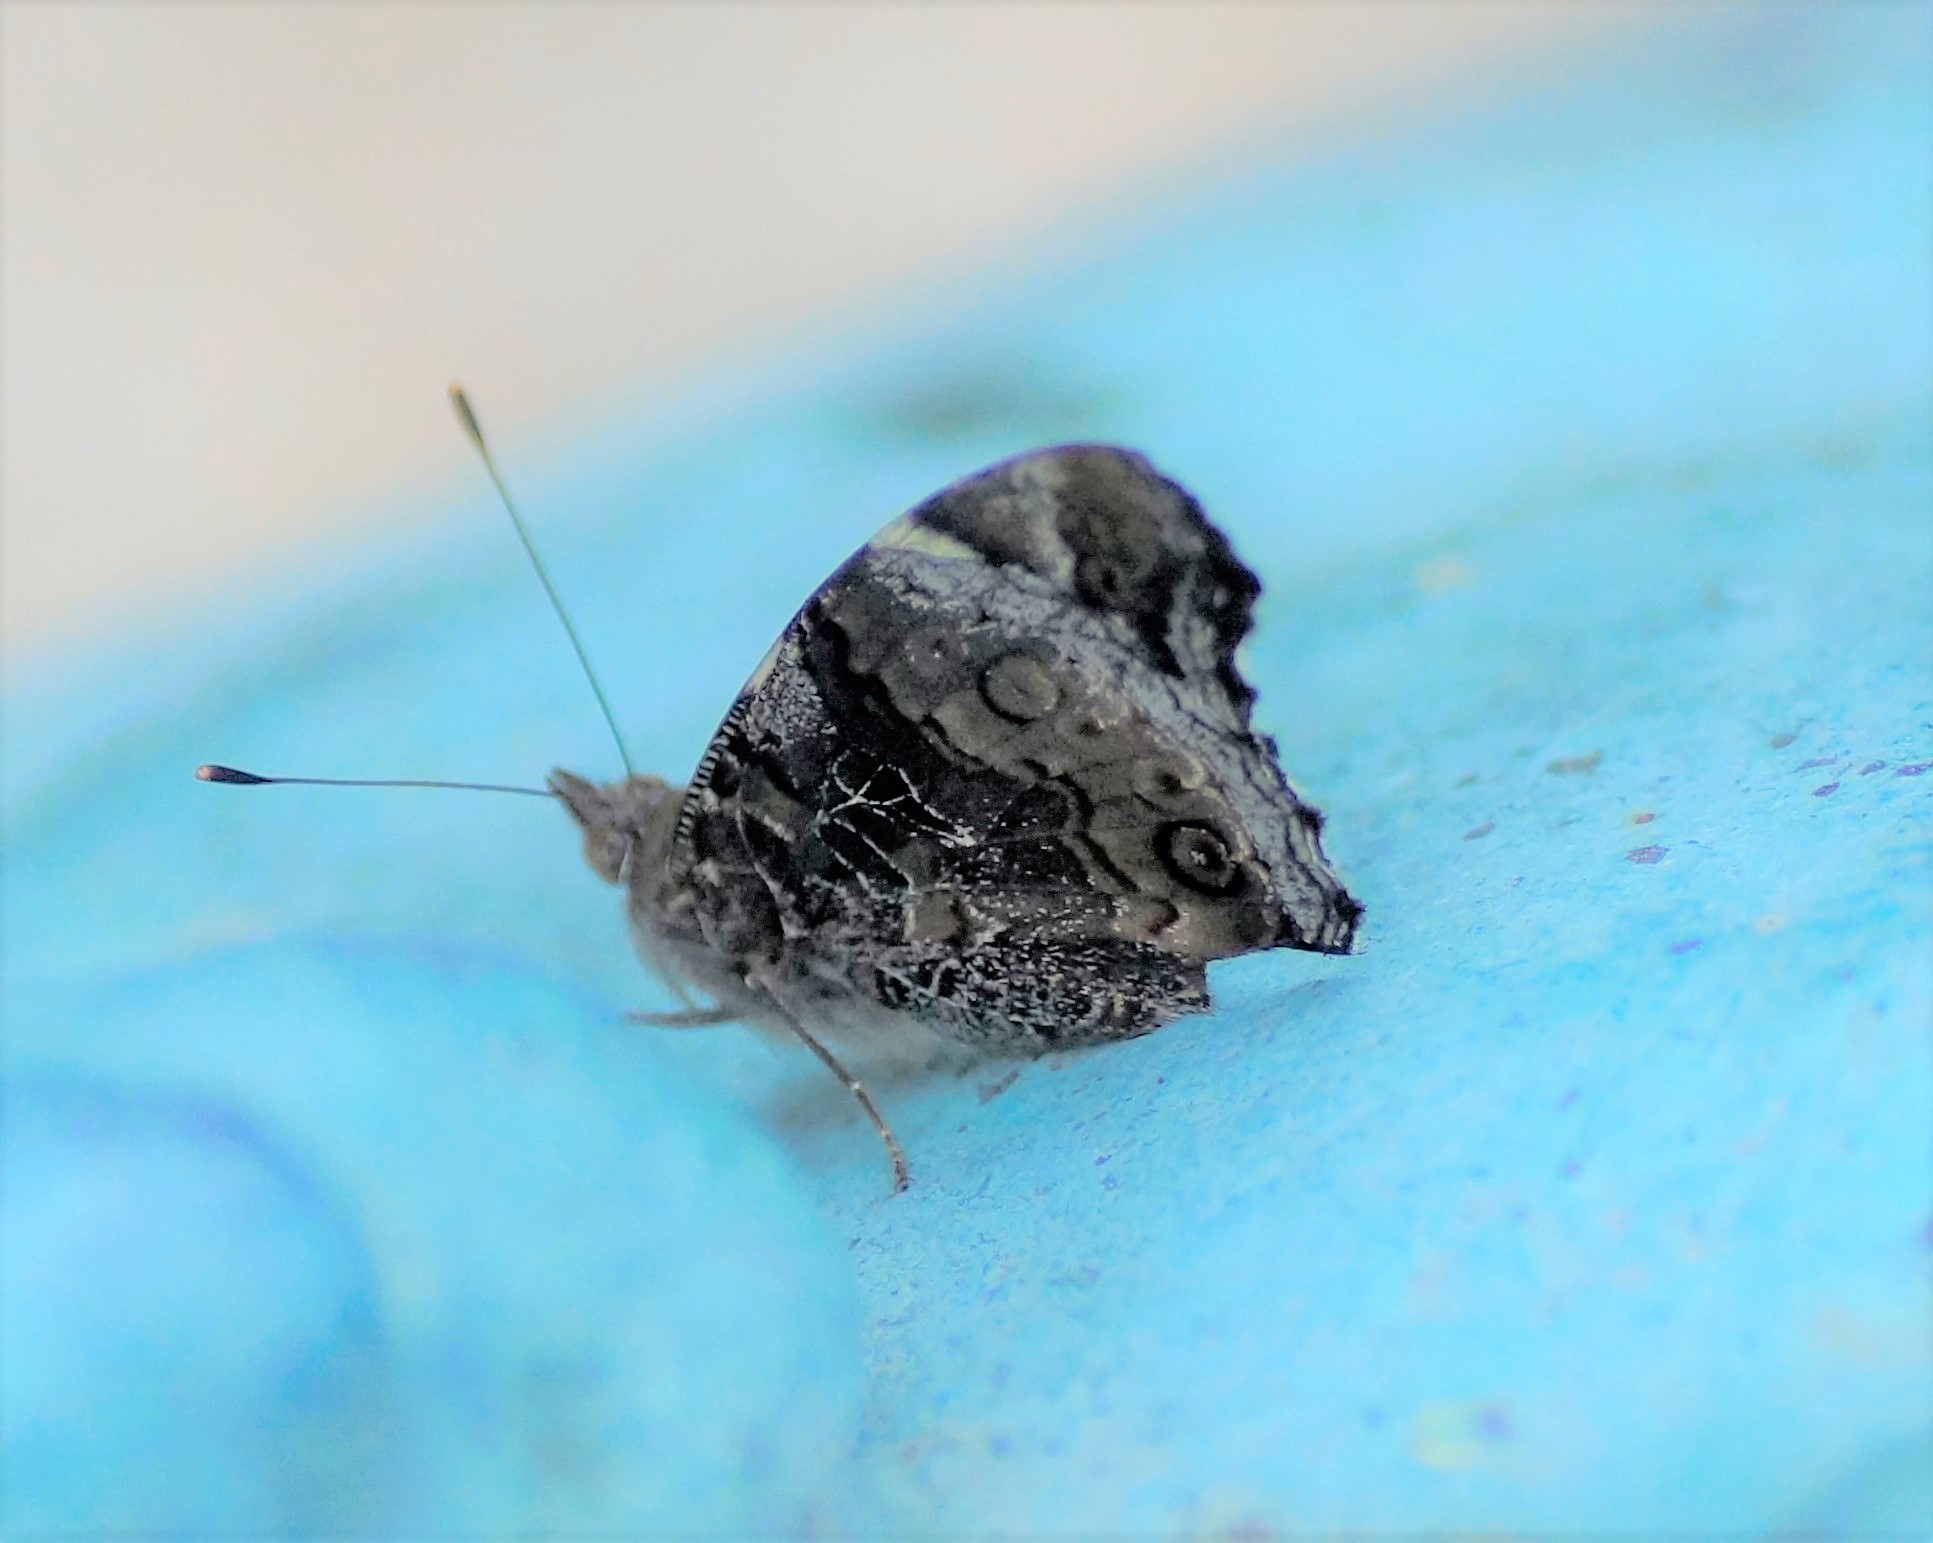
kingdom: Animalia
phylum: Arthropoda
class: Insecta
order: Lepidoptera
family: Nymphalidae
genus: Vanessa
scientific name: Vanessa itea
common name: Yellow admiral
